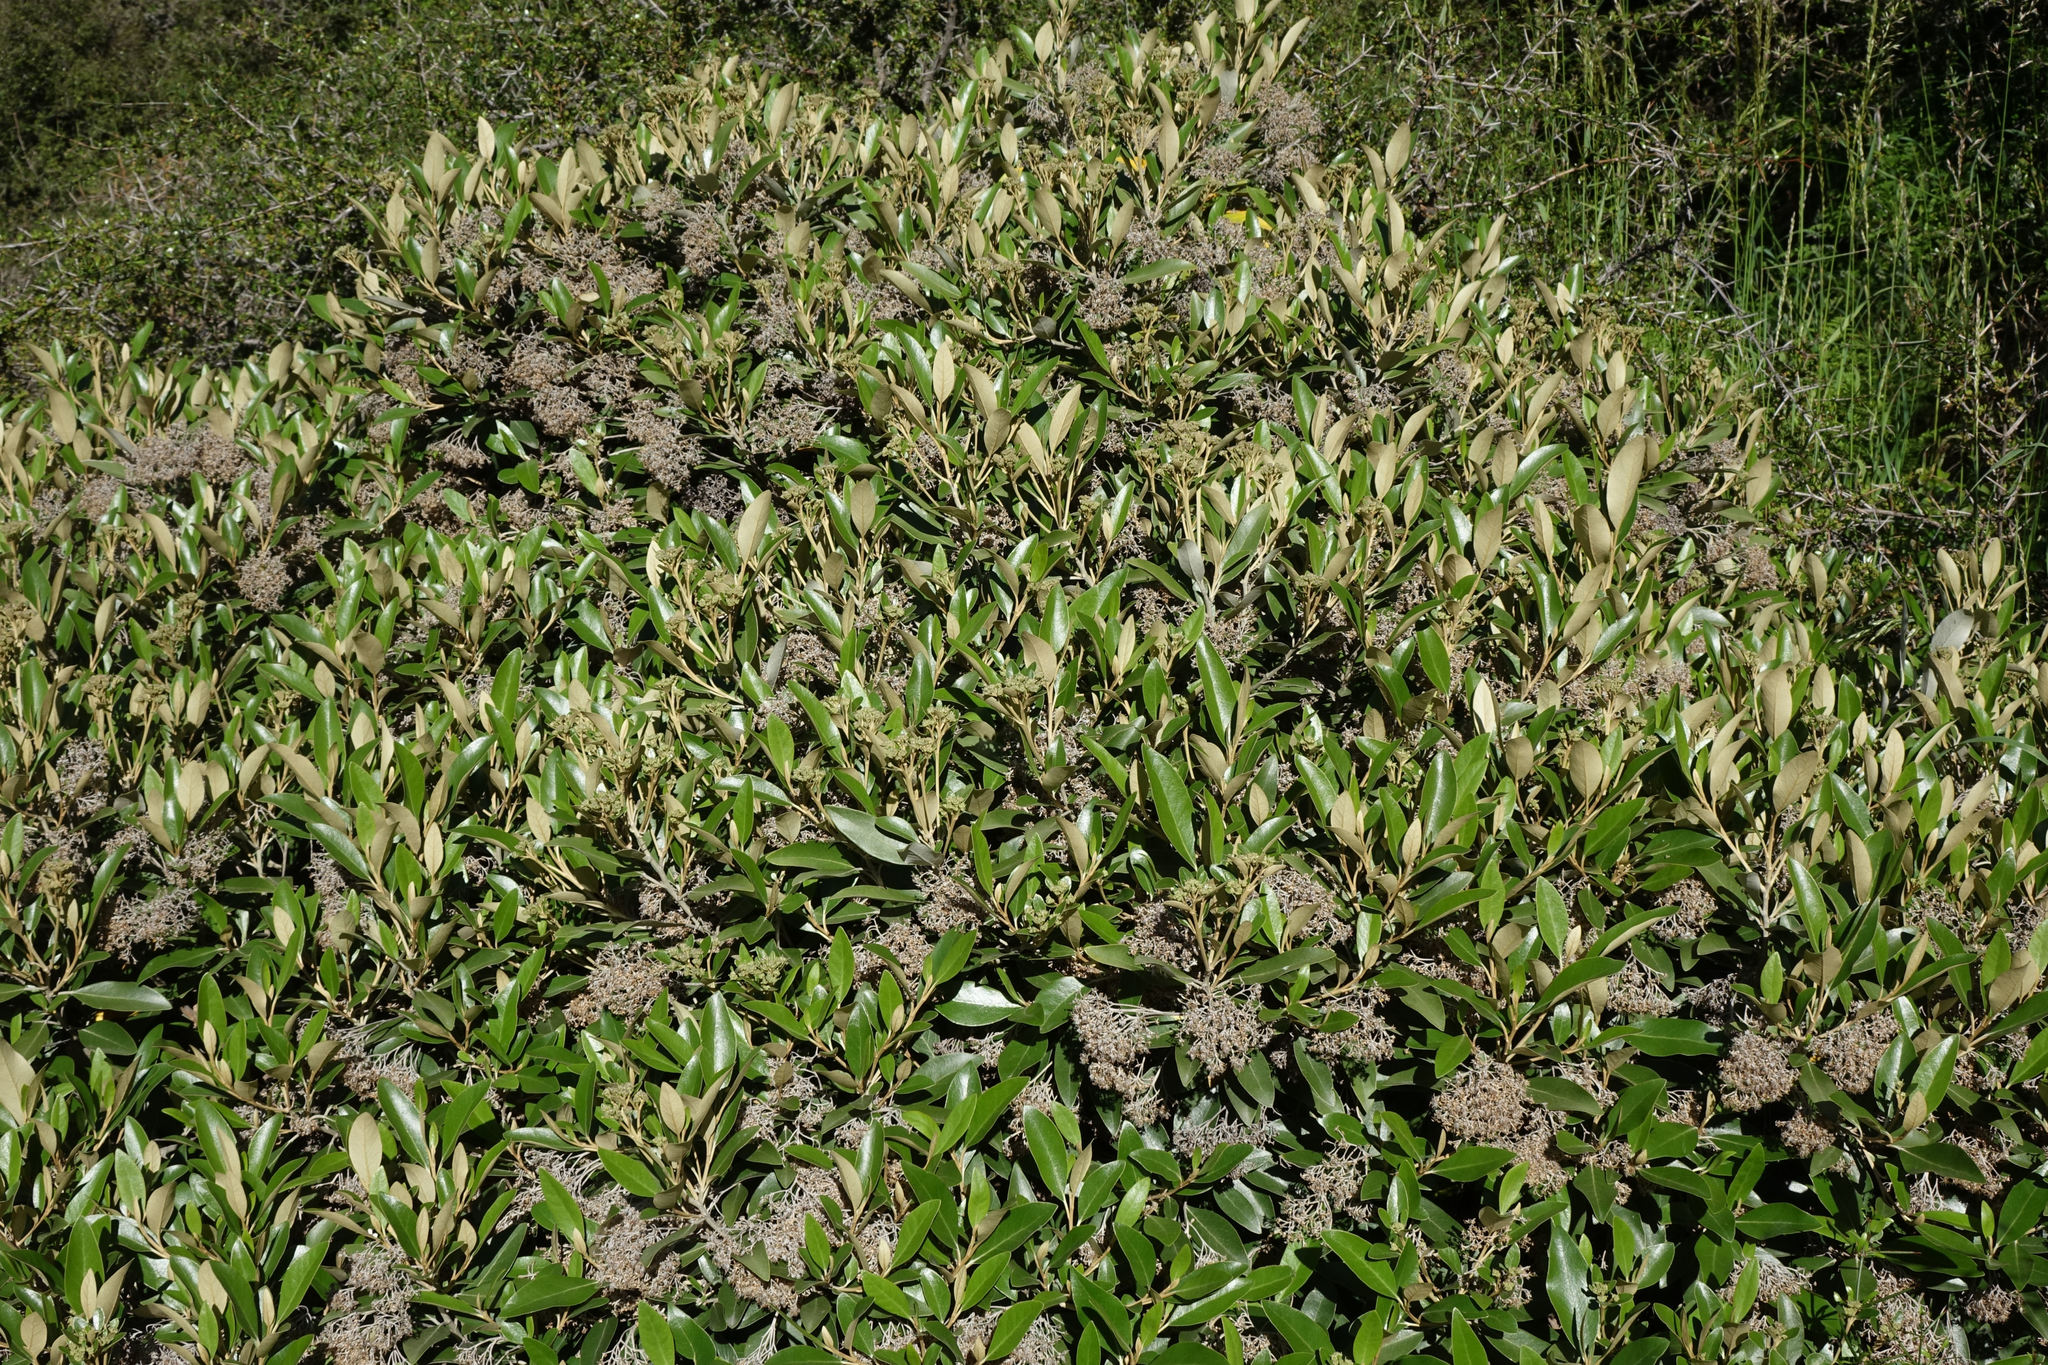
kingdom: Plantae
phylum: Tracheophyta
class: Magnoliopsida
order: Asterales
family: Asteraceae
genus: Olearia
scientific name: Olearia avicenniifolia
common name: Mangrove-leaf daisybush
